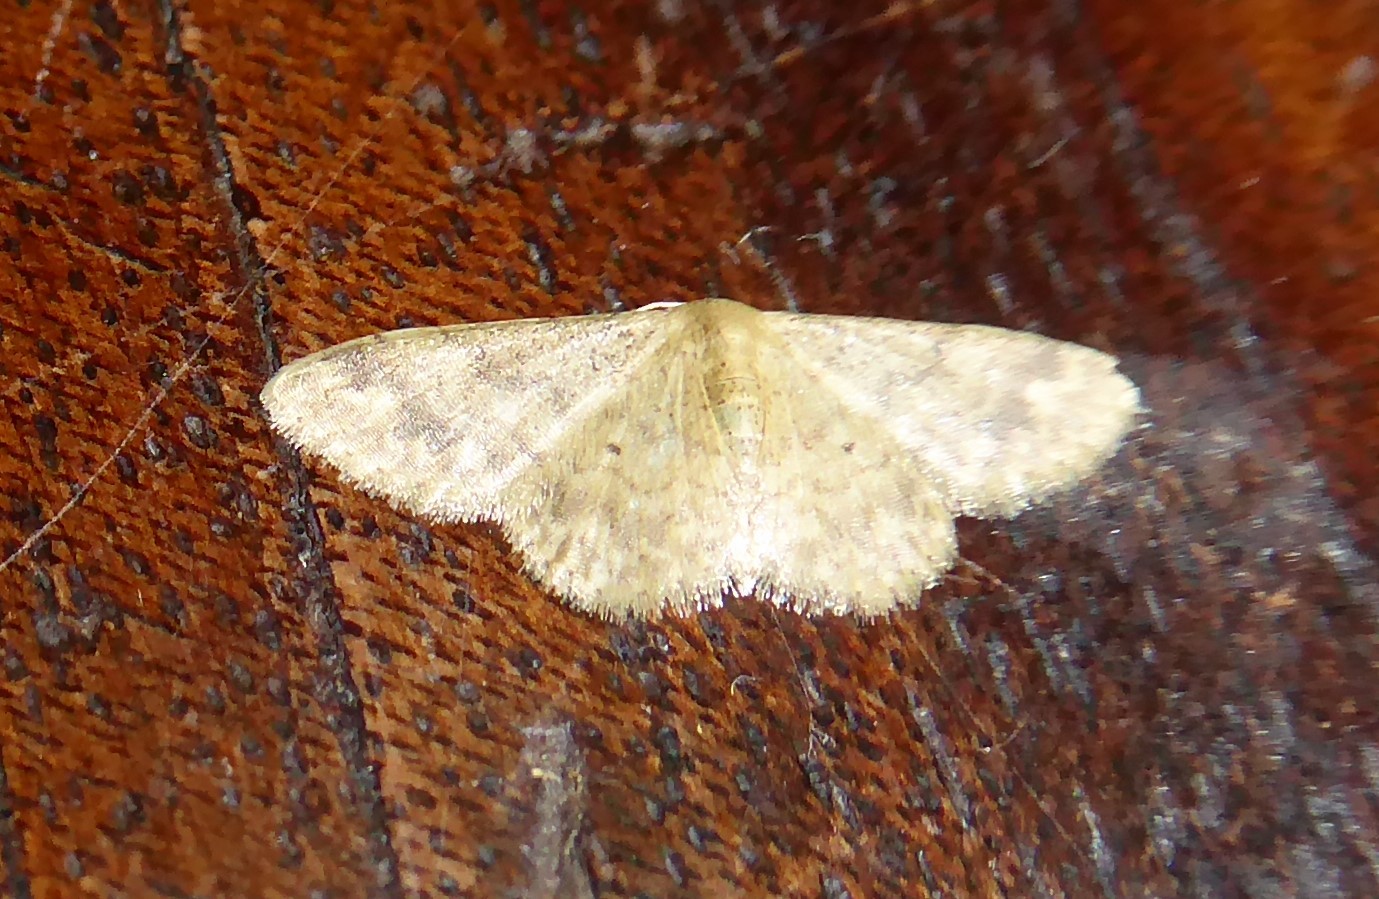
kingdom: Animalia
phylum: Arthropoda
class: Insecta
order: Lepidoptera
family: Geometridae
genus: Idaea
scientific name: Idaea pilosata
